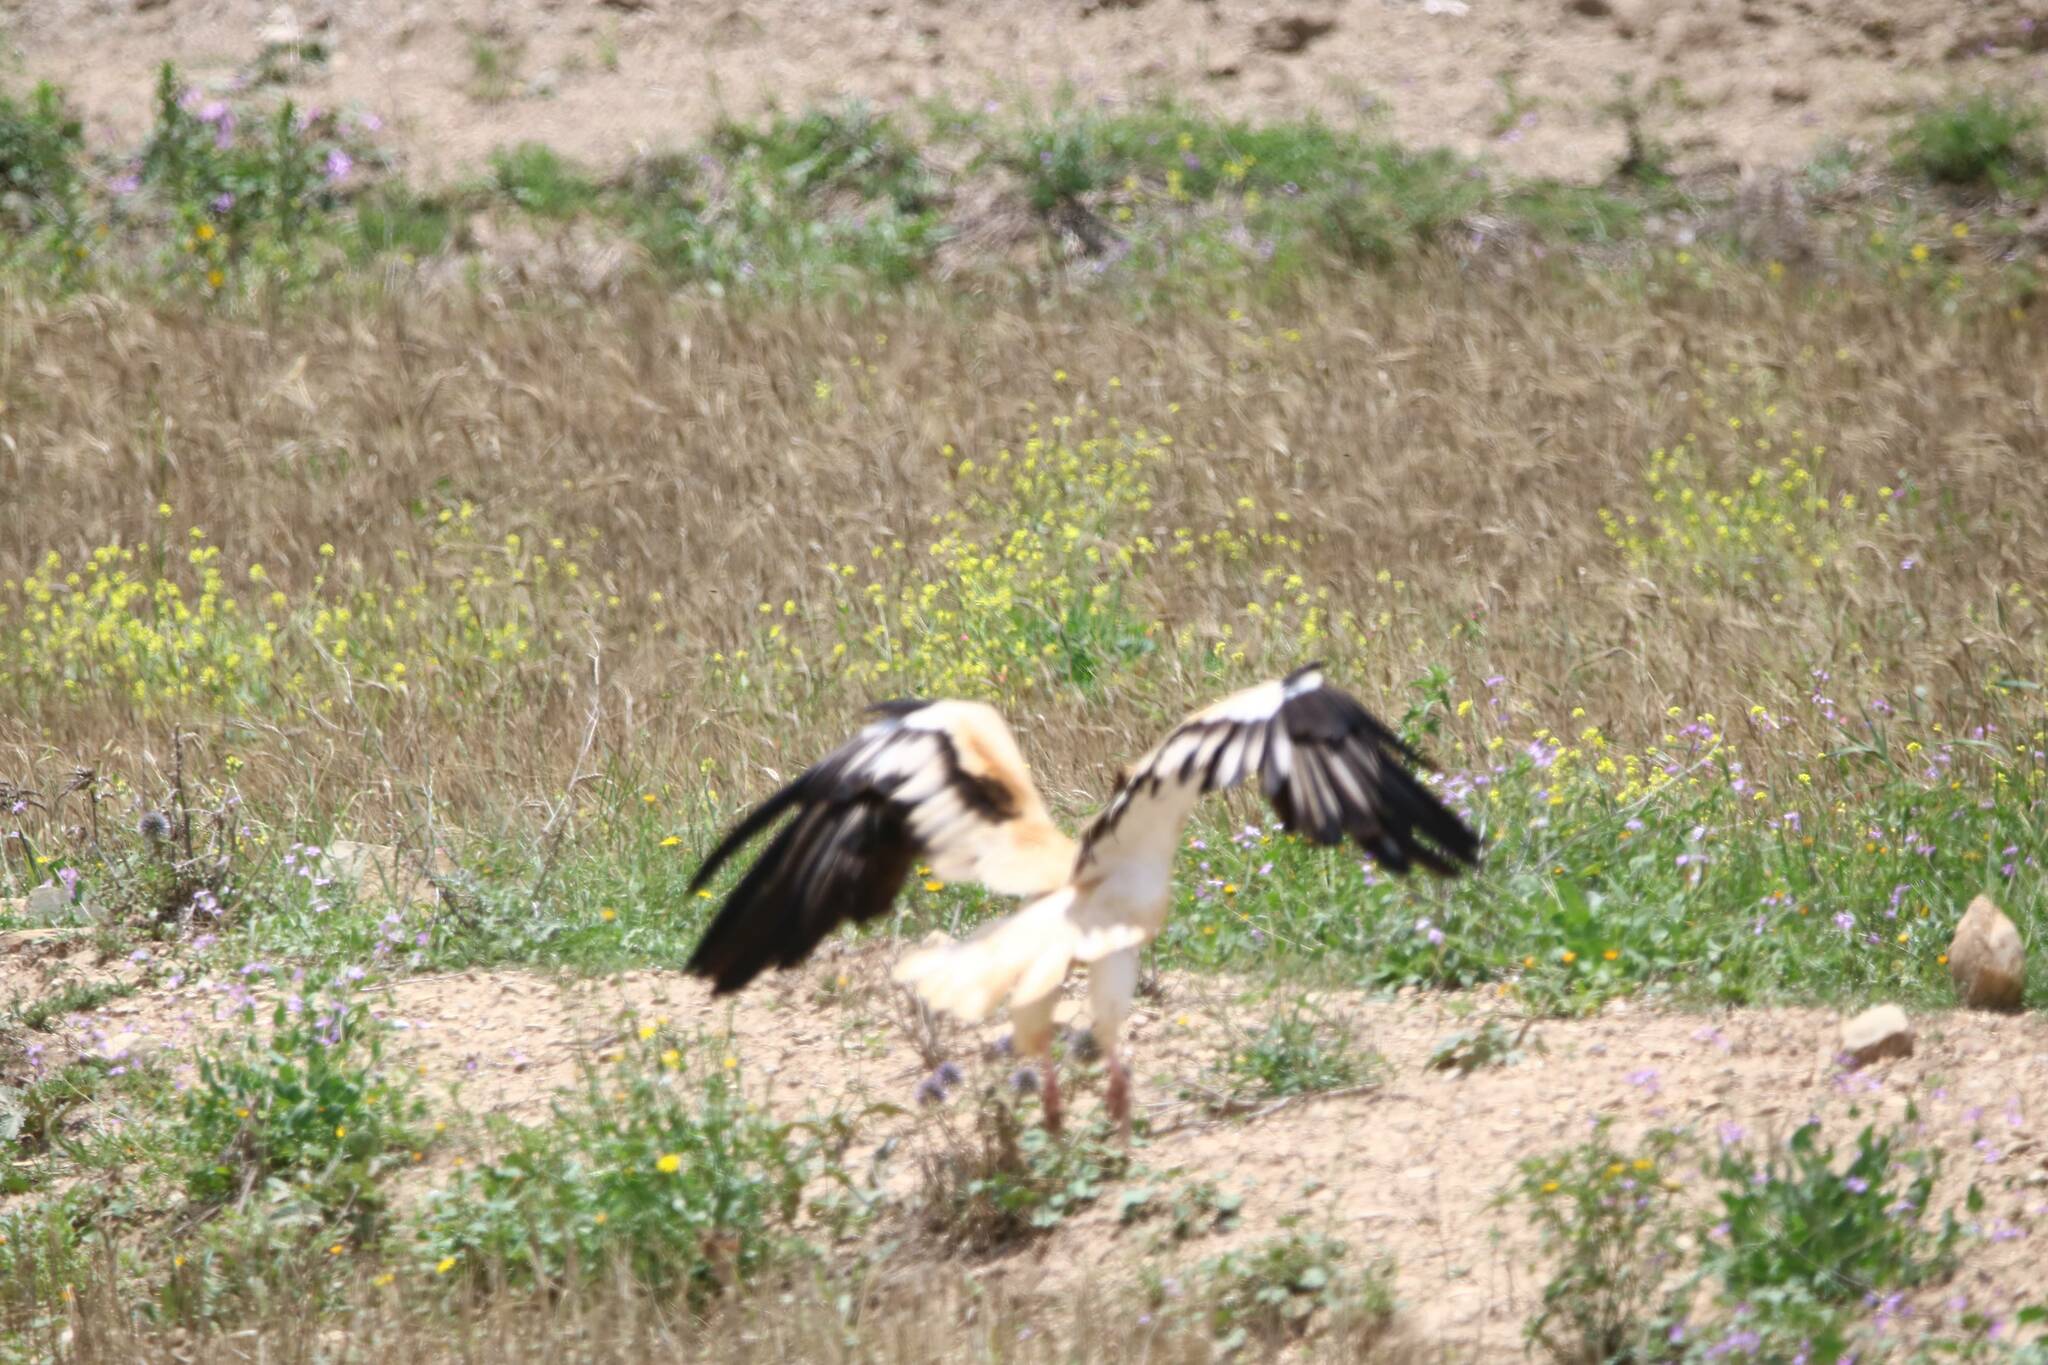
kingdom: Animalia
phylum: Chordata
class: Aves
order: Accipitriformes
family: Accipitridae
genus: Neophron
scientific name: Neophron percnopterus
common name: Egyptian vulture
